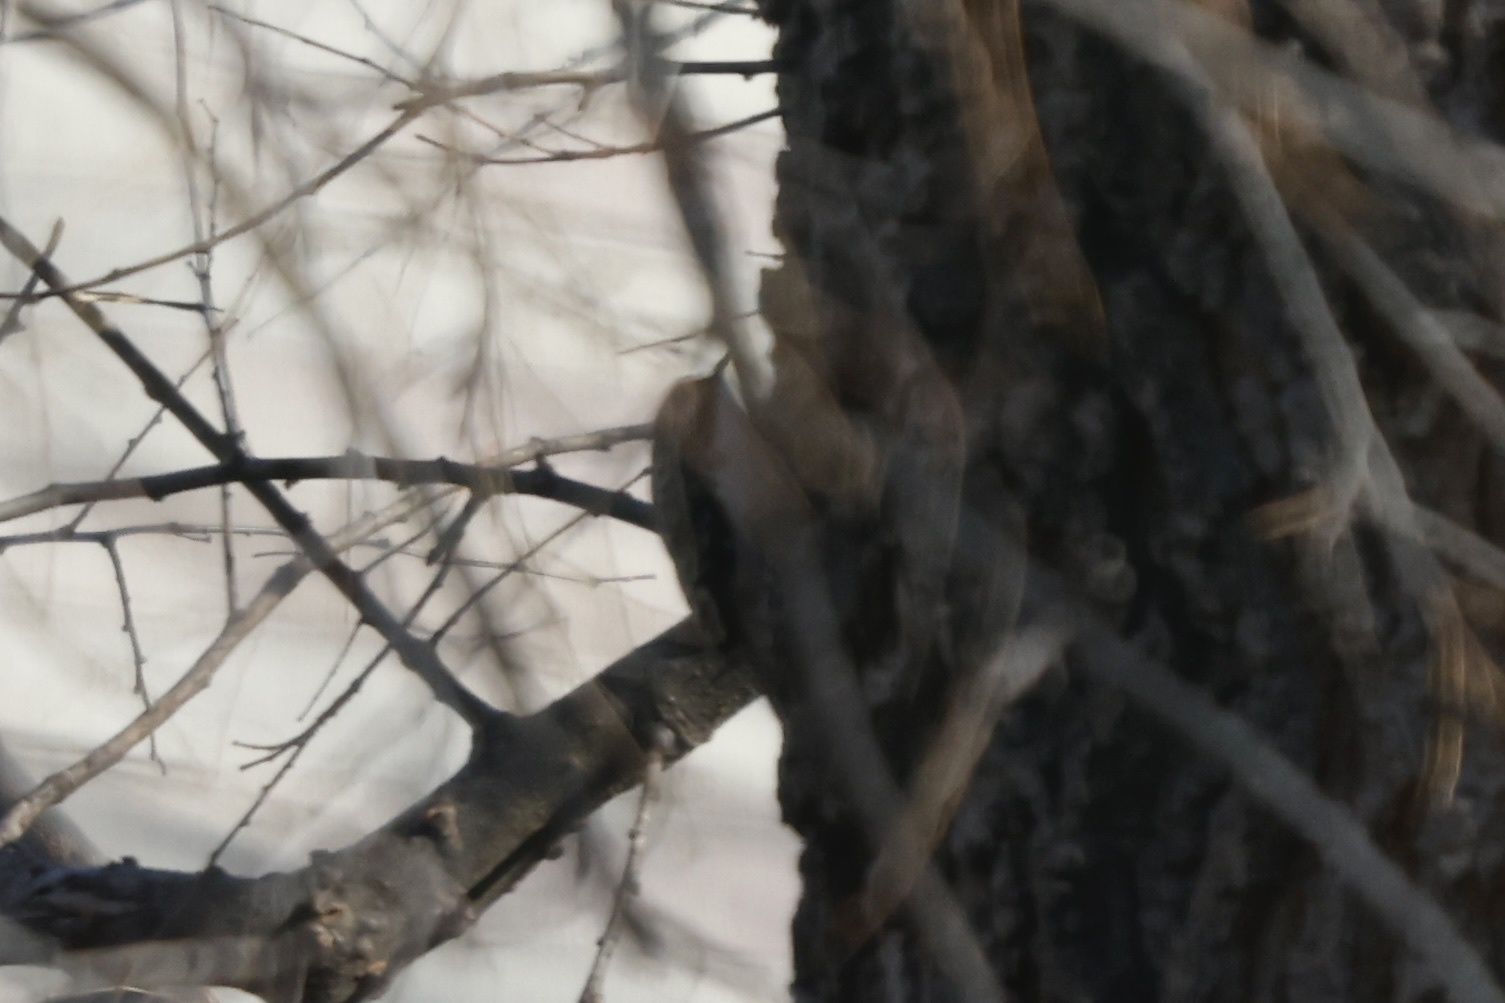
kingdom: Animalia
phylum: Chordata
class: Aves
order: Passeriformes
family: Certhiidae
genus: Certhia
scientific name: Certhia americana
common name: Brown creeper
